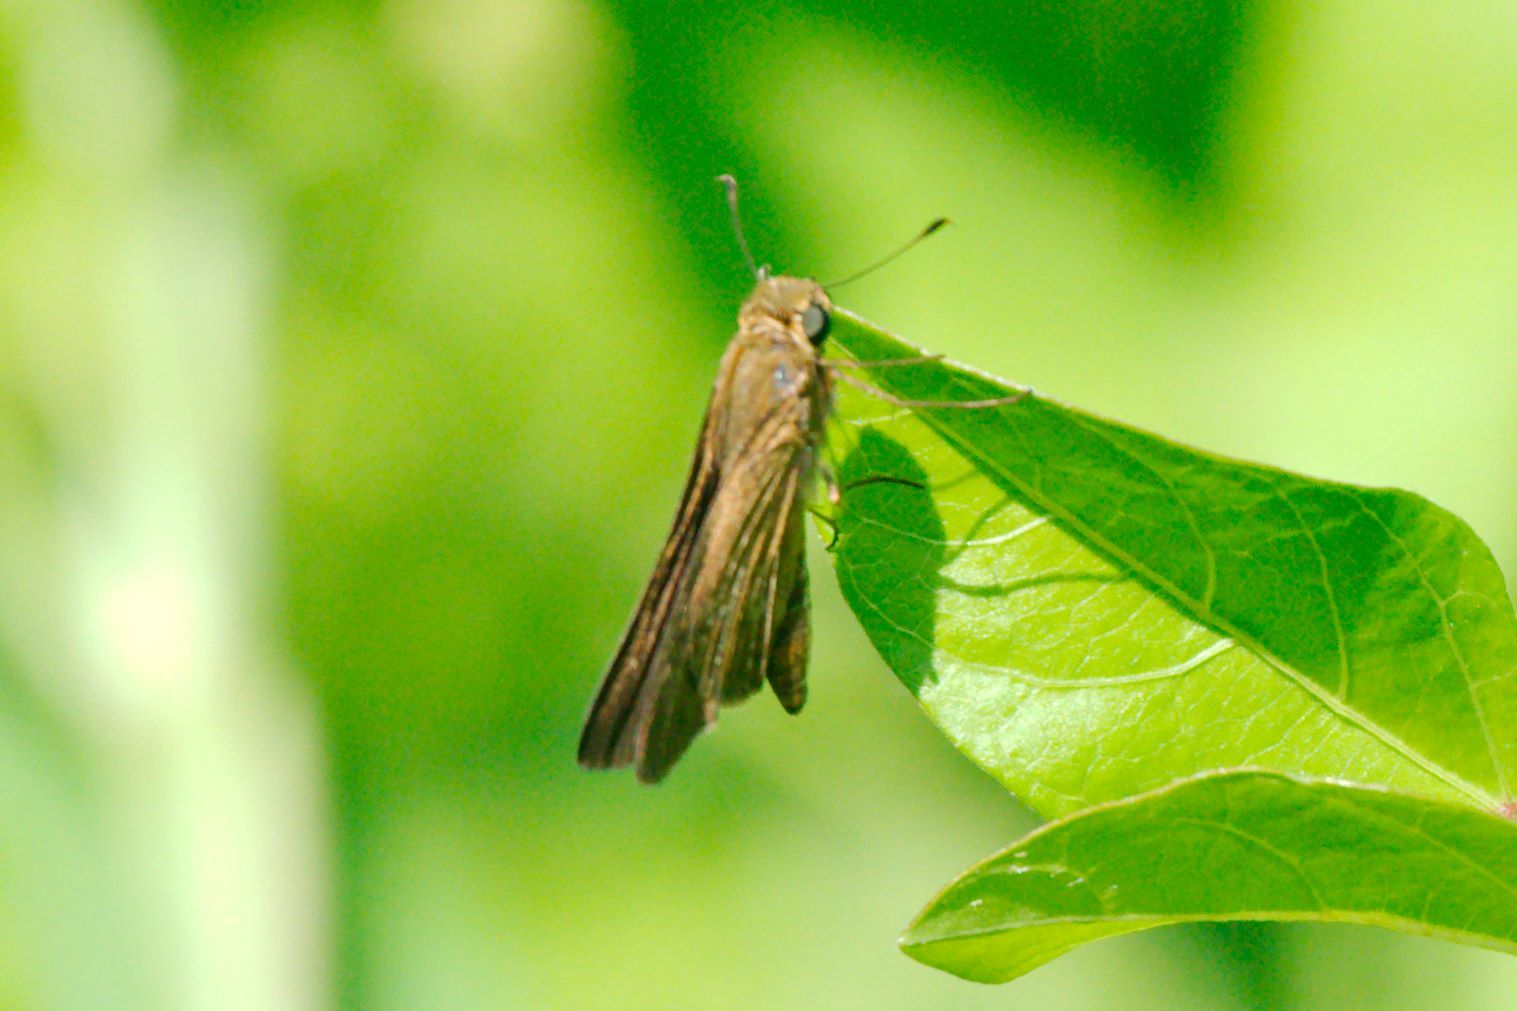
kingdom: Animalia
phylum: Arthropoda
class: Insecta
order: Lepidoptera
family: Hesperiidae
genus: Panoquina
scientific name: Panoquina ocola
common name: Ocola skipper
